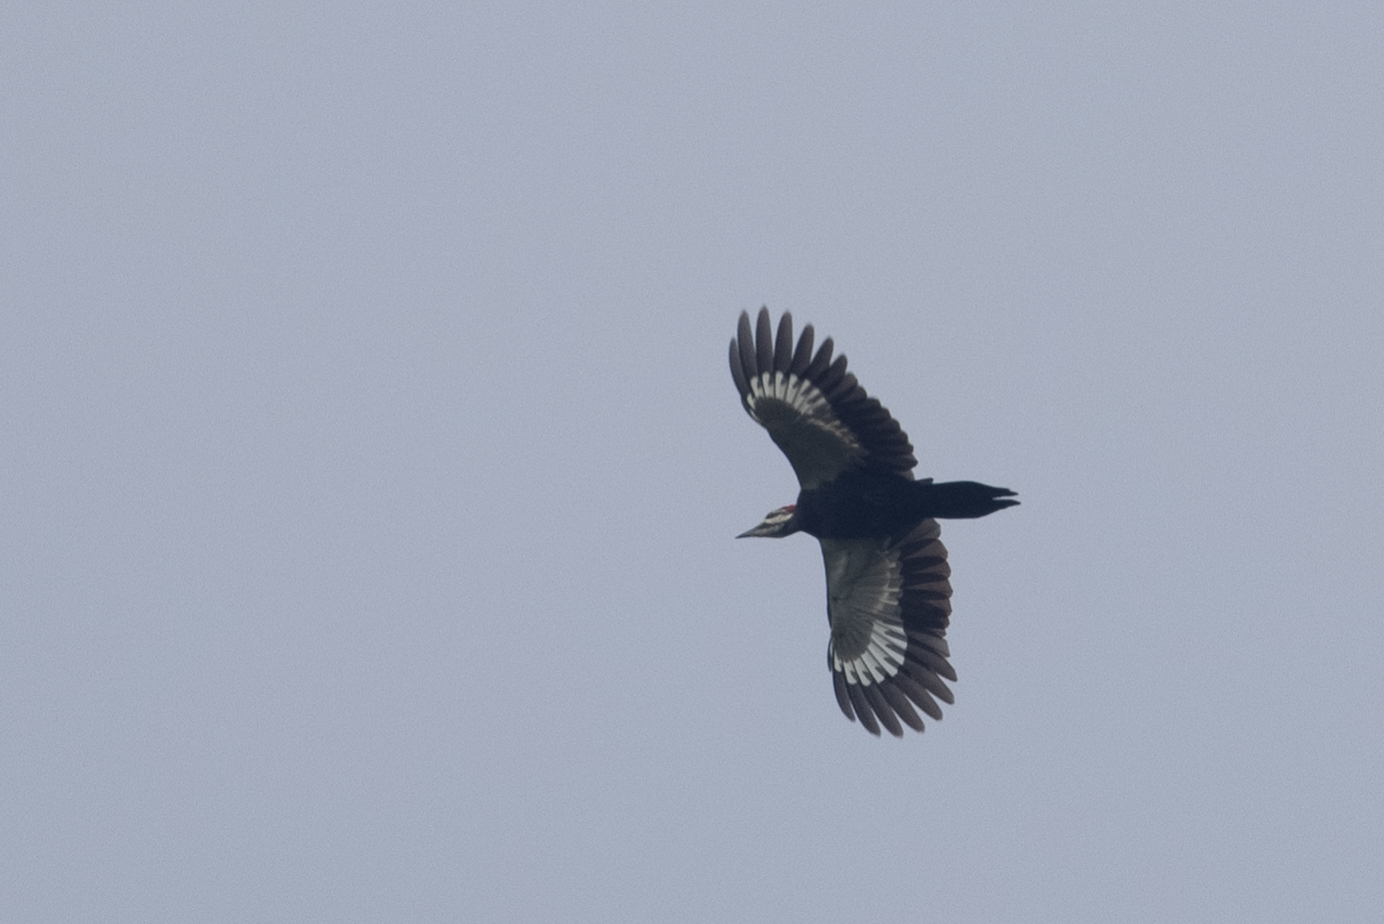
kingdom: Animalia
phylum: Chordata
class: Aves
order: Piciformes
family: Picidae
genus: Dryocopus
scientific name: Dryocopus pileatus
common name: Pileated woodpecker
